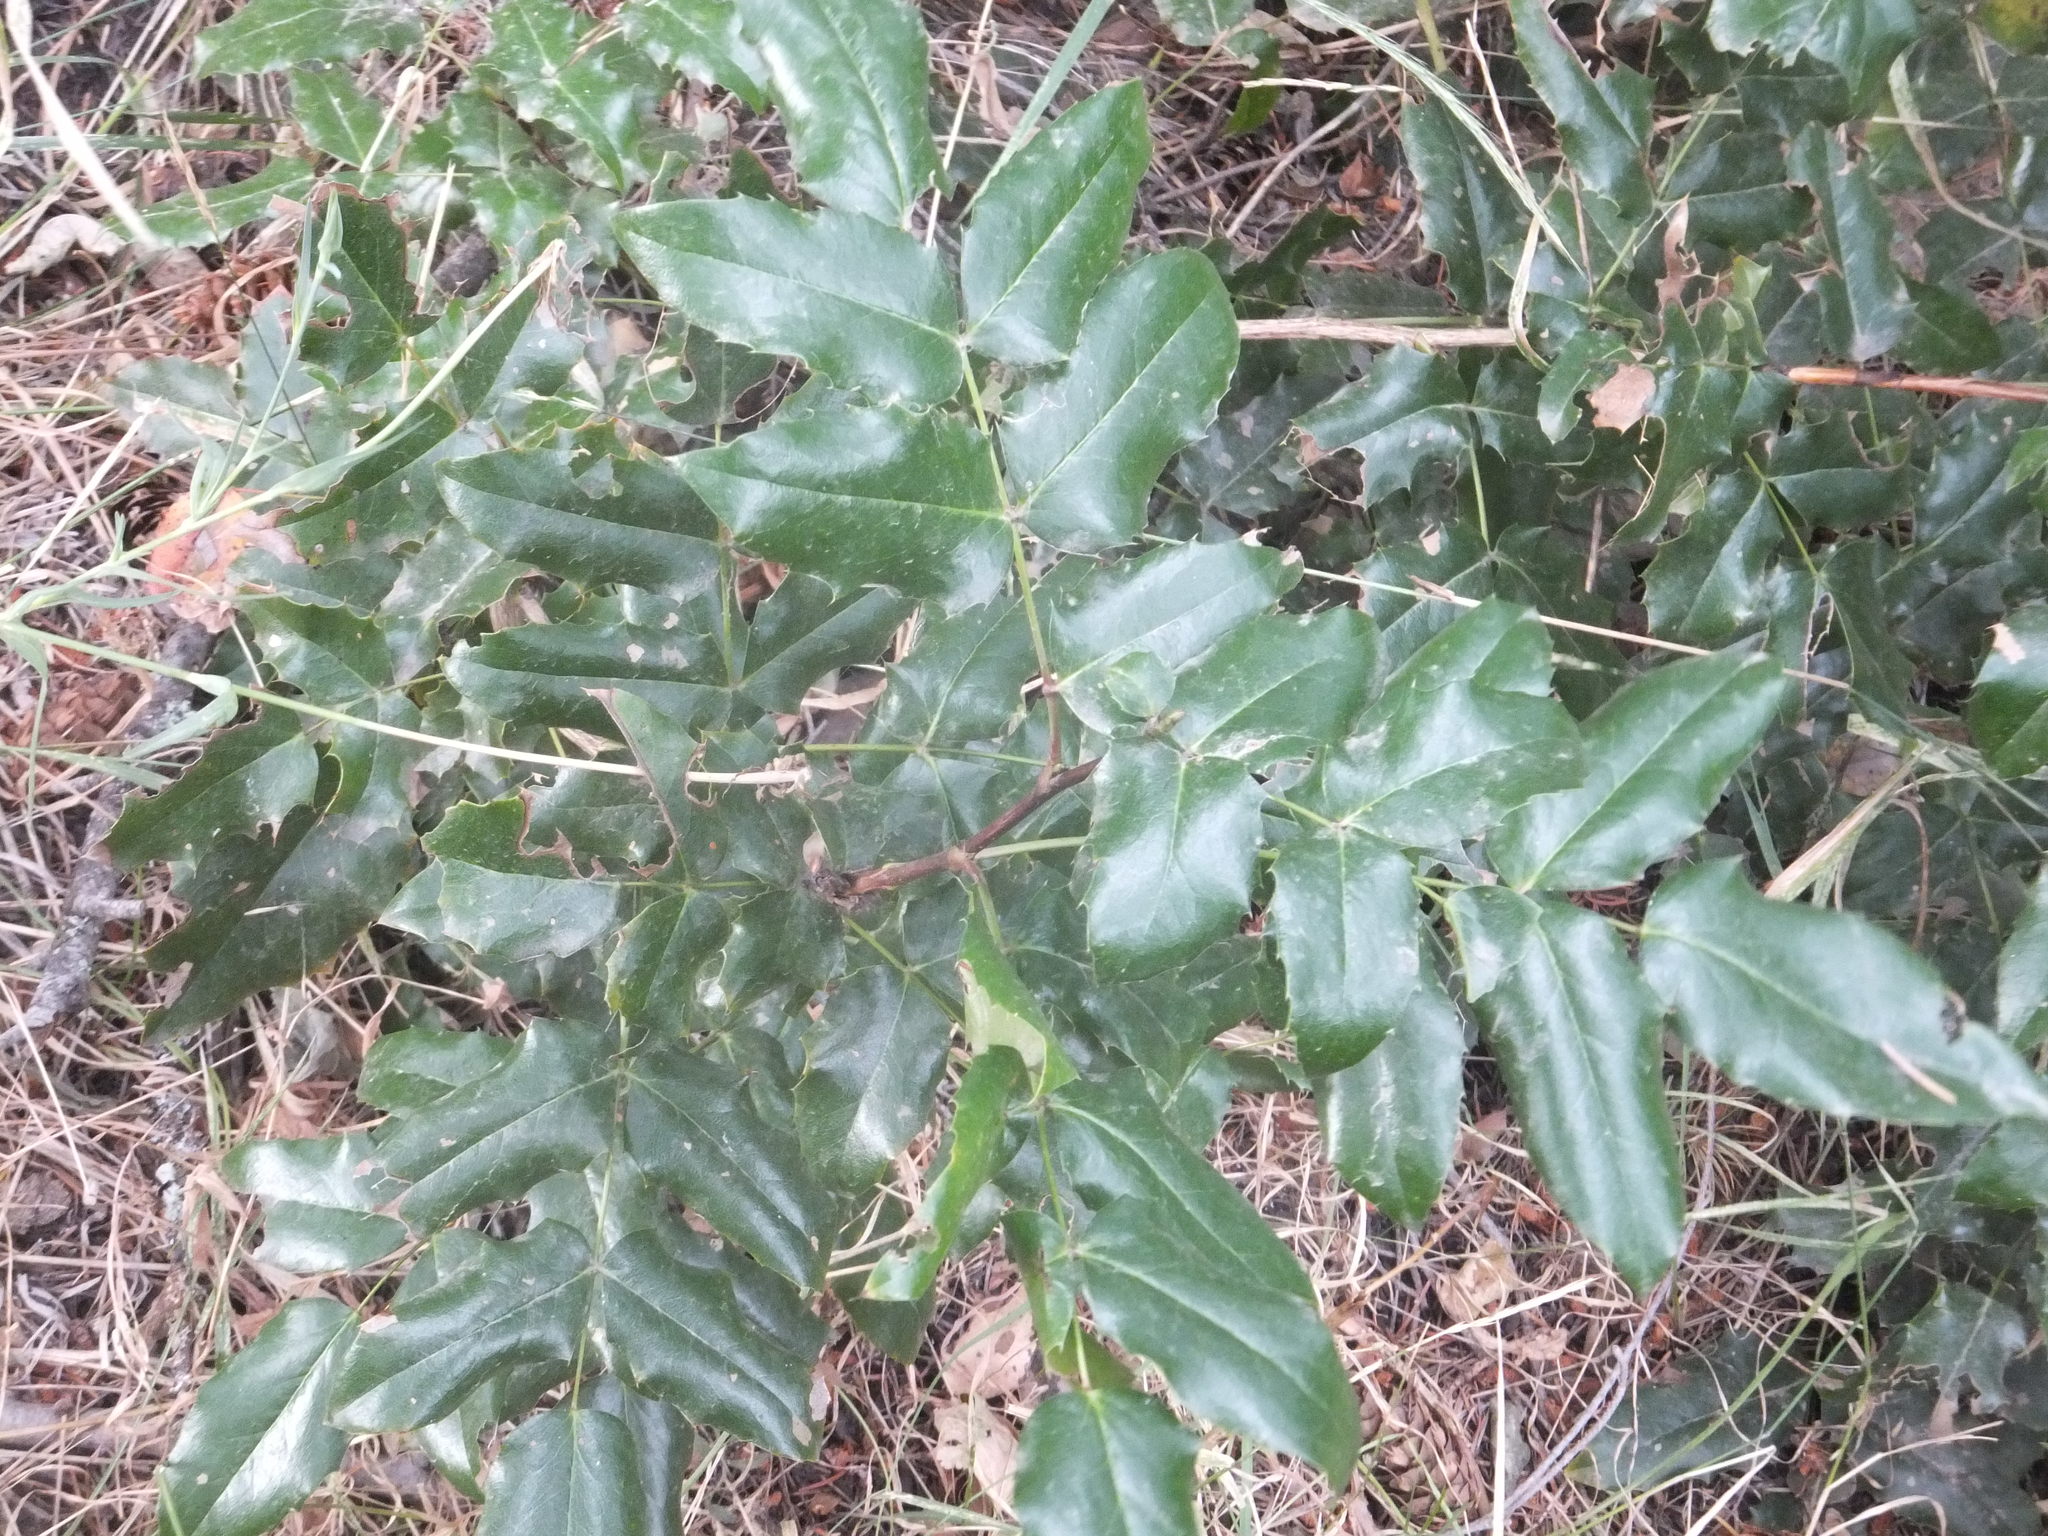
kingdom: Plantae
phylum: Tracheophyta
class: Magnoliopsida
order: Ranunculales
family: Berberidaceae
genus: Mahonia
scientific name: Mahonia aquifolium
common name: Oregon-grape
